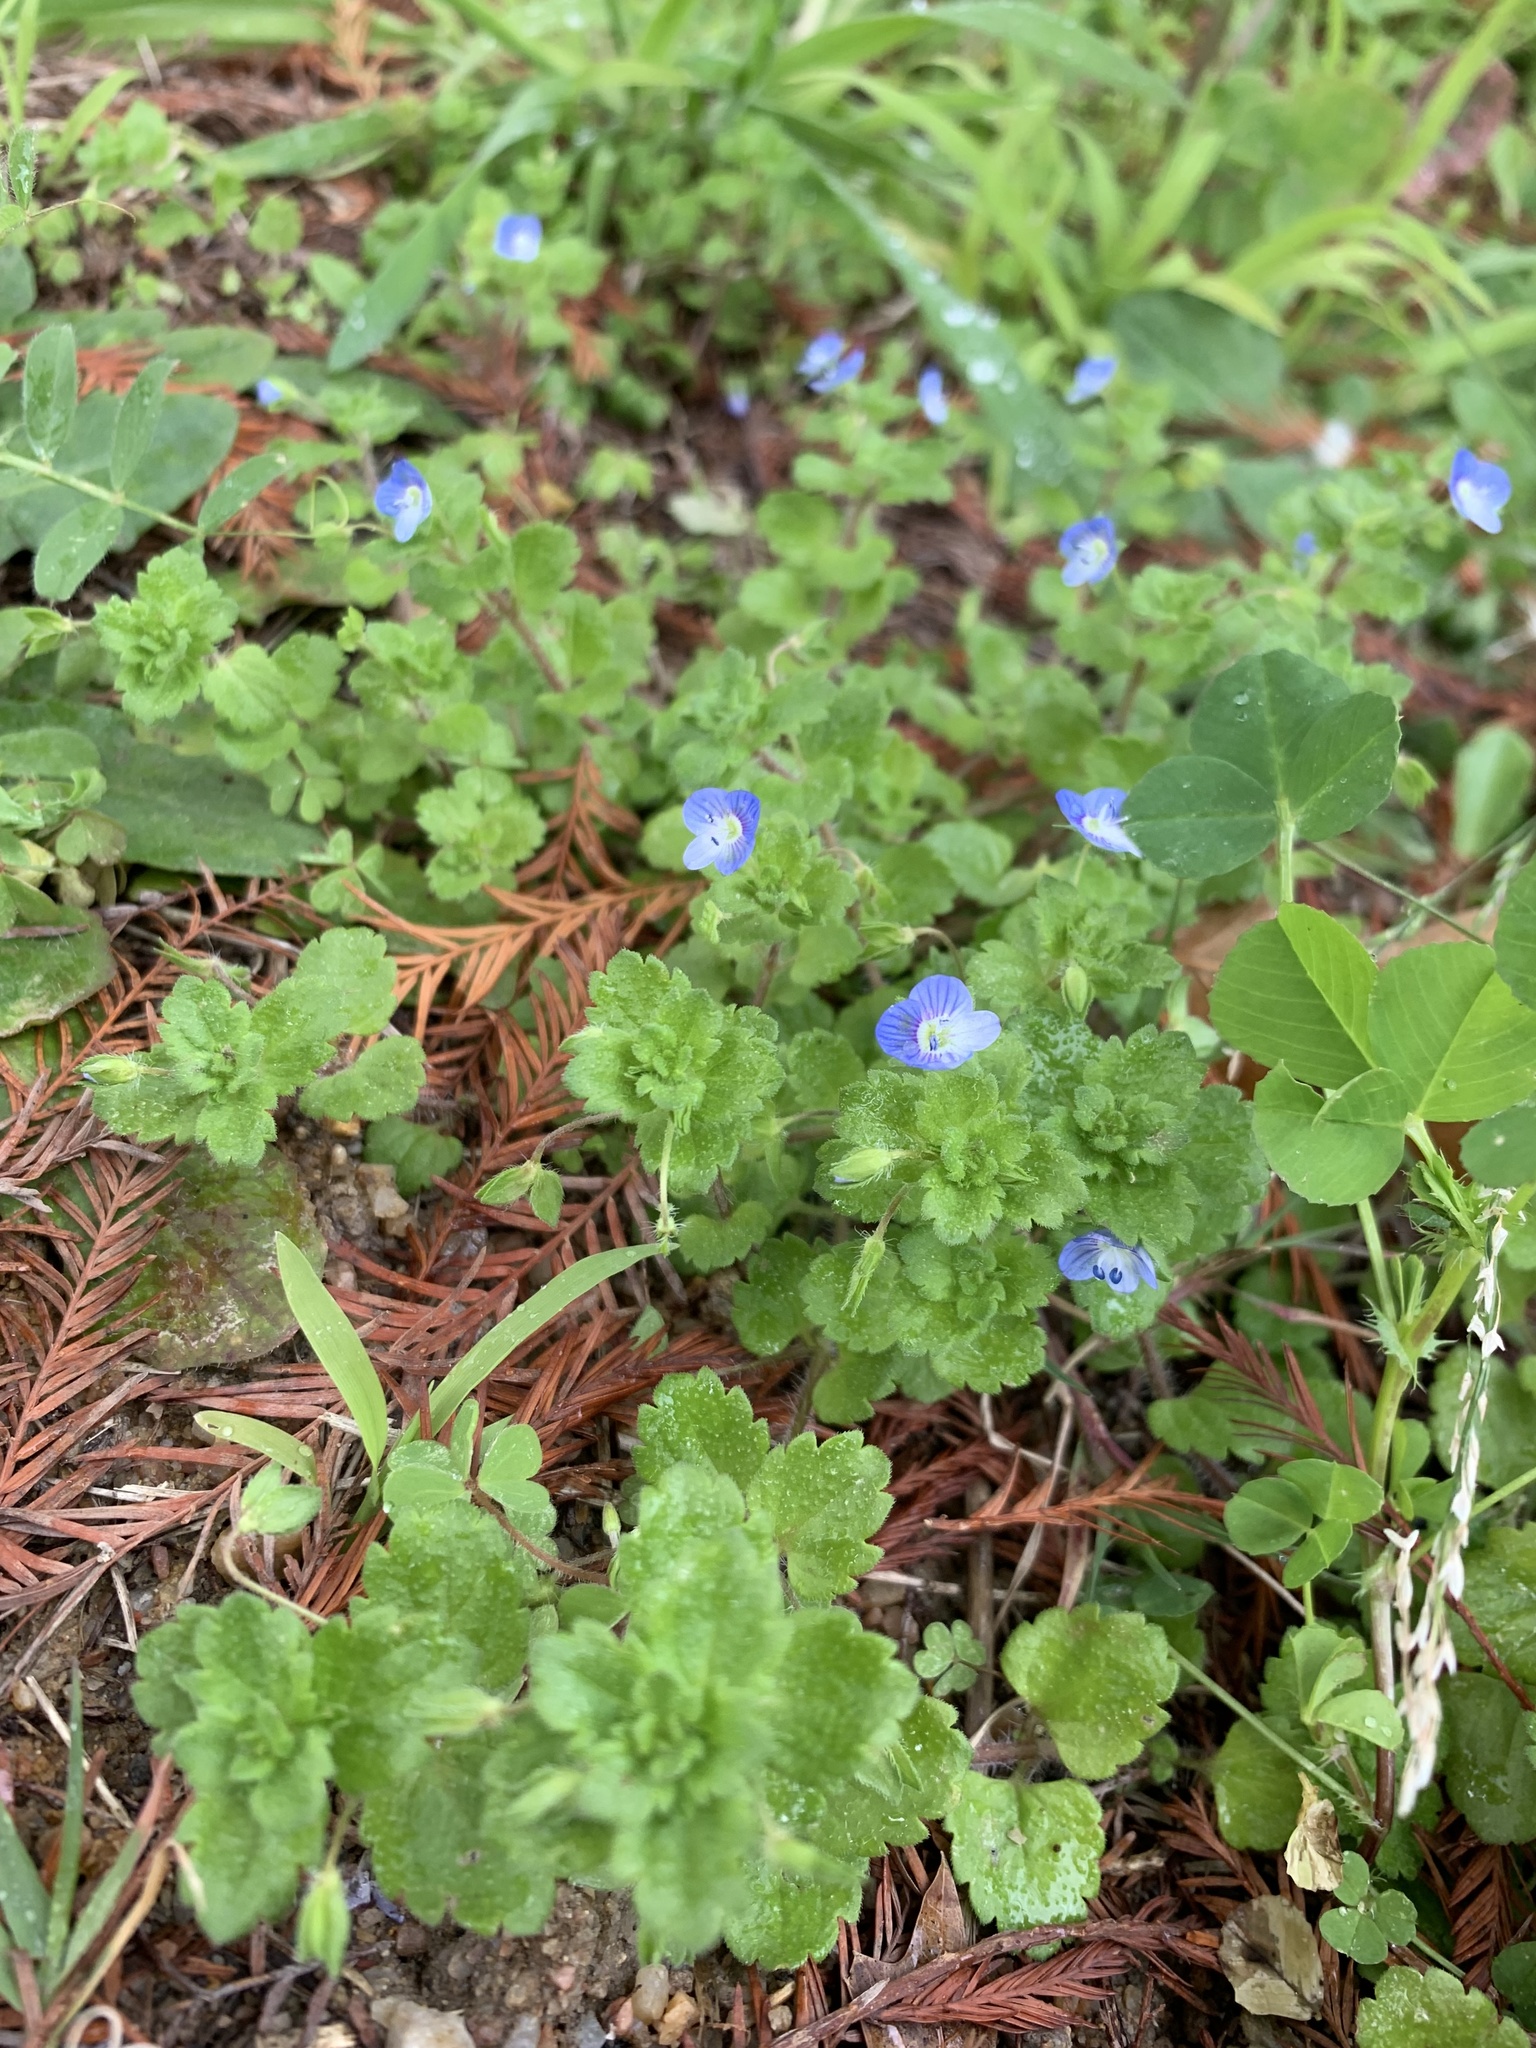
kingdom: Plantae
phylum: Tracheophyta
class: Magnoliopsida
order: Lamiales
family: Plantaginaceae
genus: Veronica
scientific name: Veronica persica
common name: Common field-speedwell
